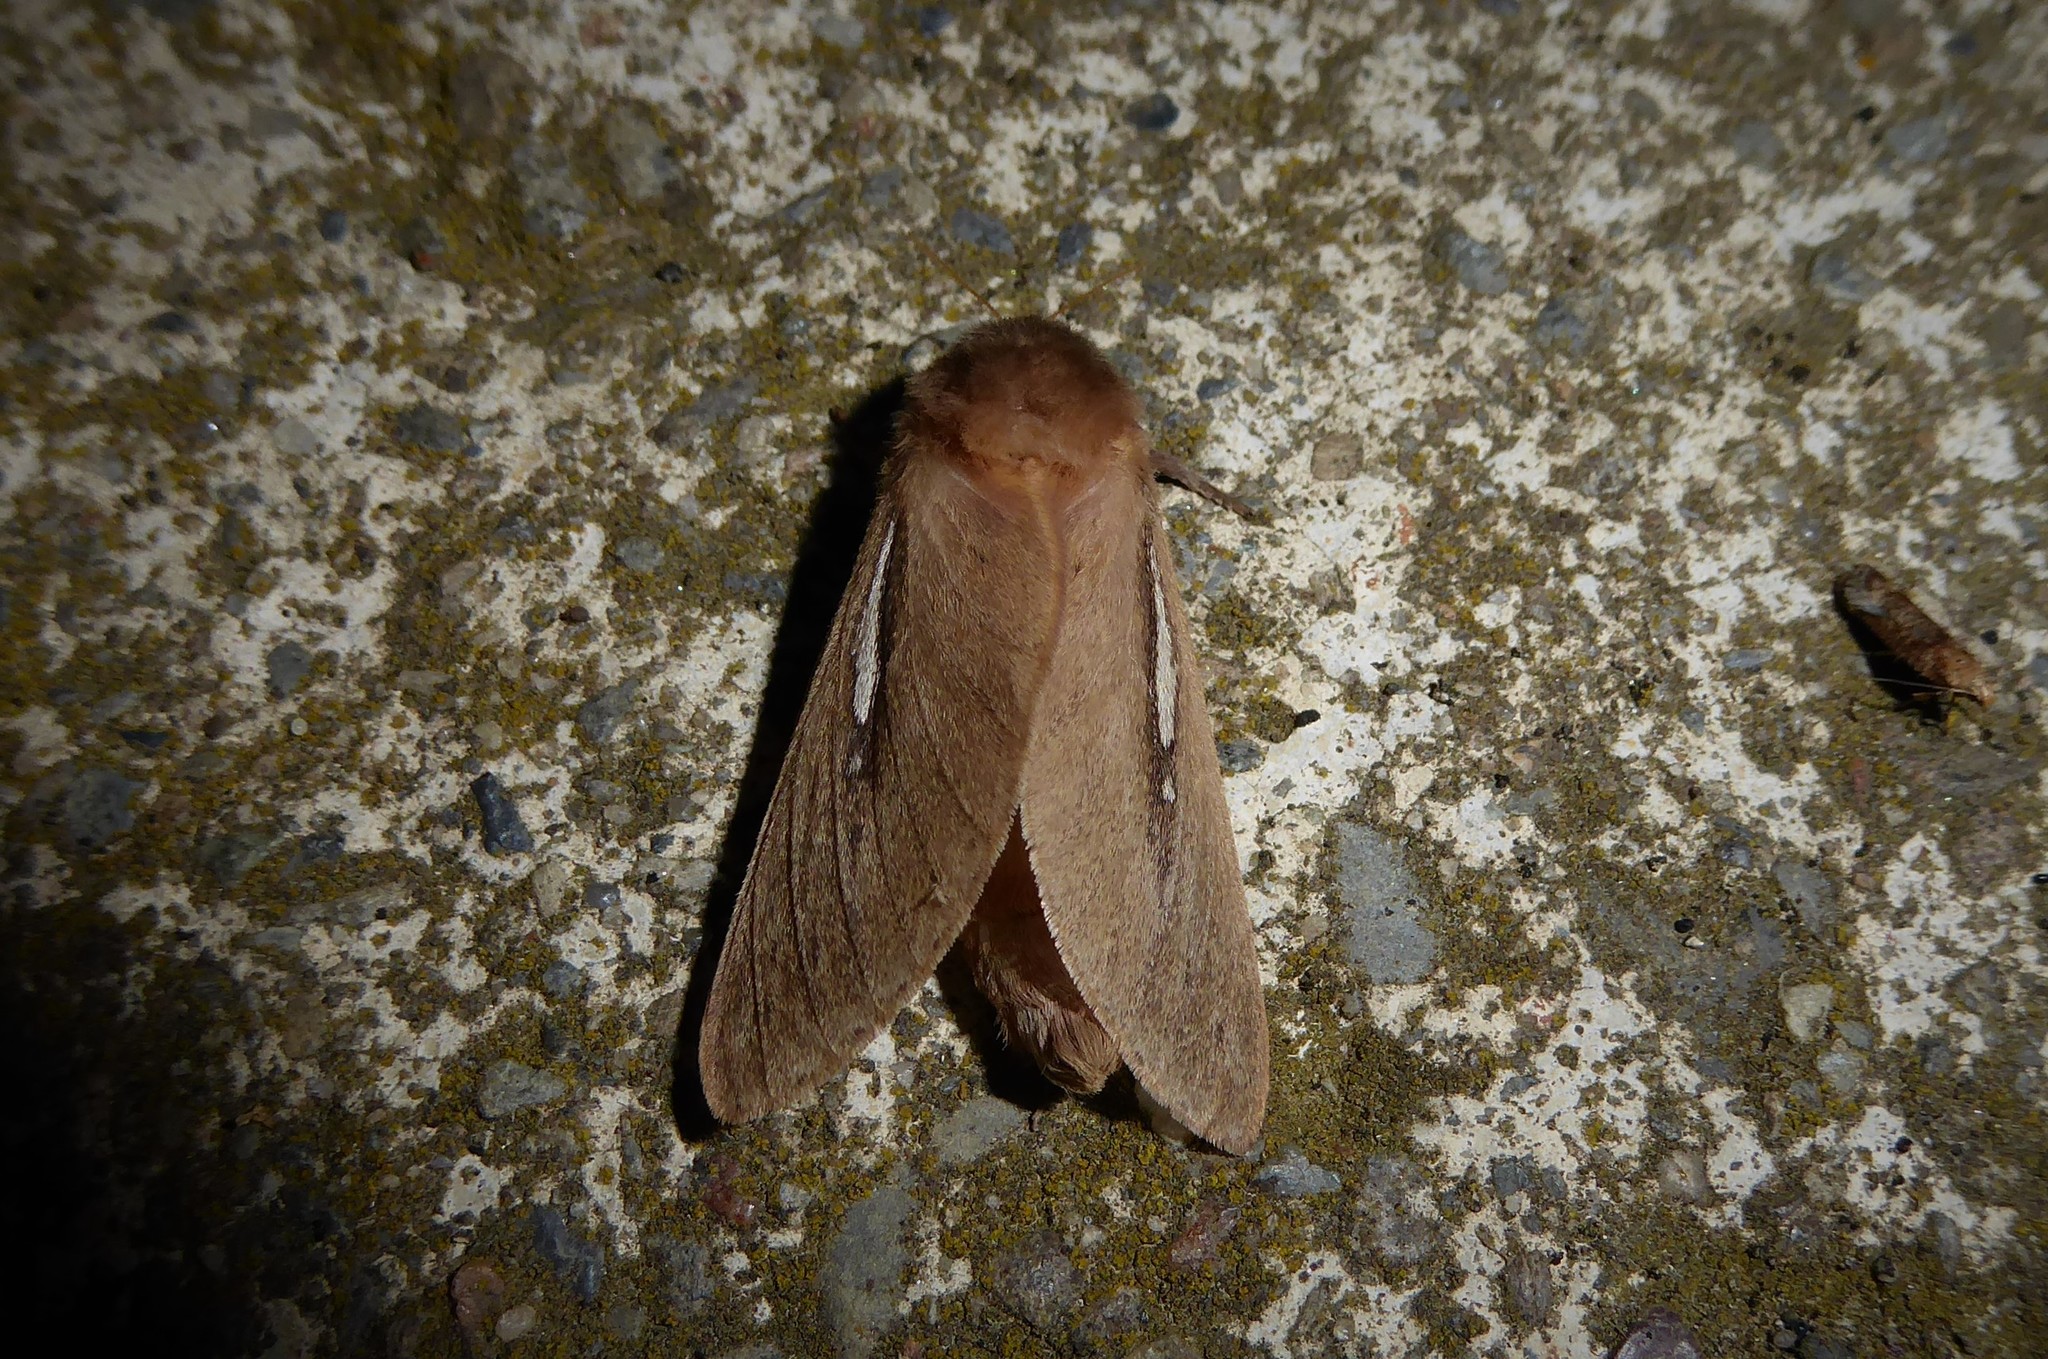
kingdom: Animalia
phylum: Arthropoda
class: Insecta
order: Lepidoptera
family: Hepialidae
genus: Wiseana
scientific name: Wiseana umbraculatus
